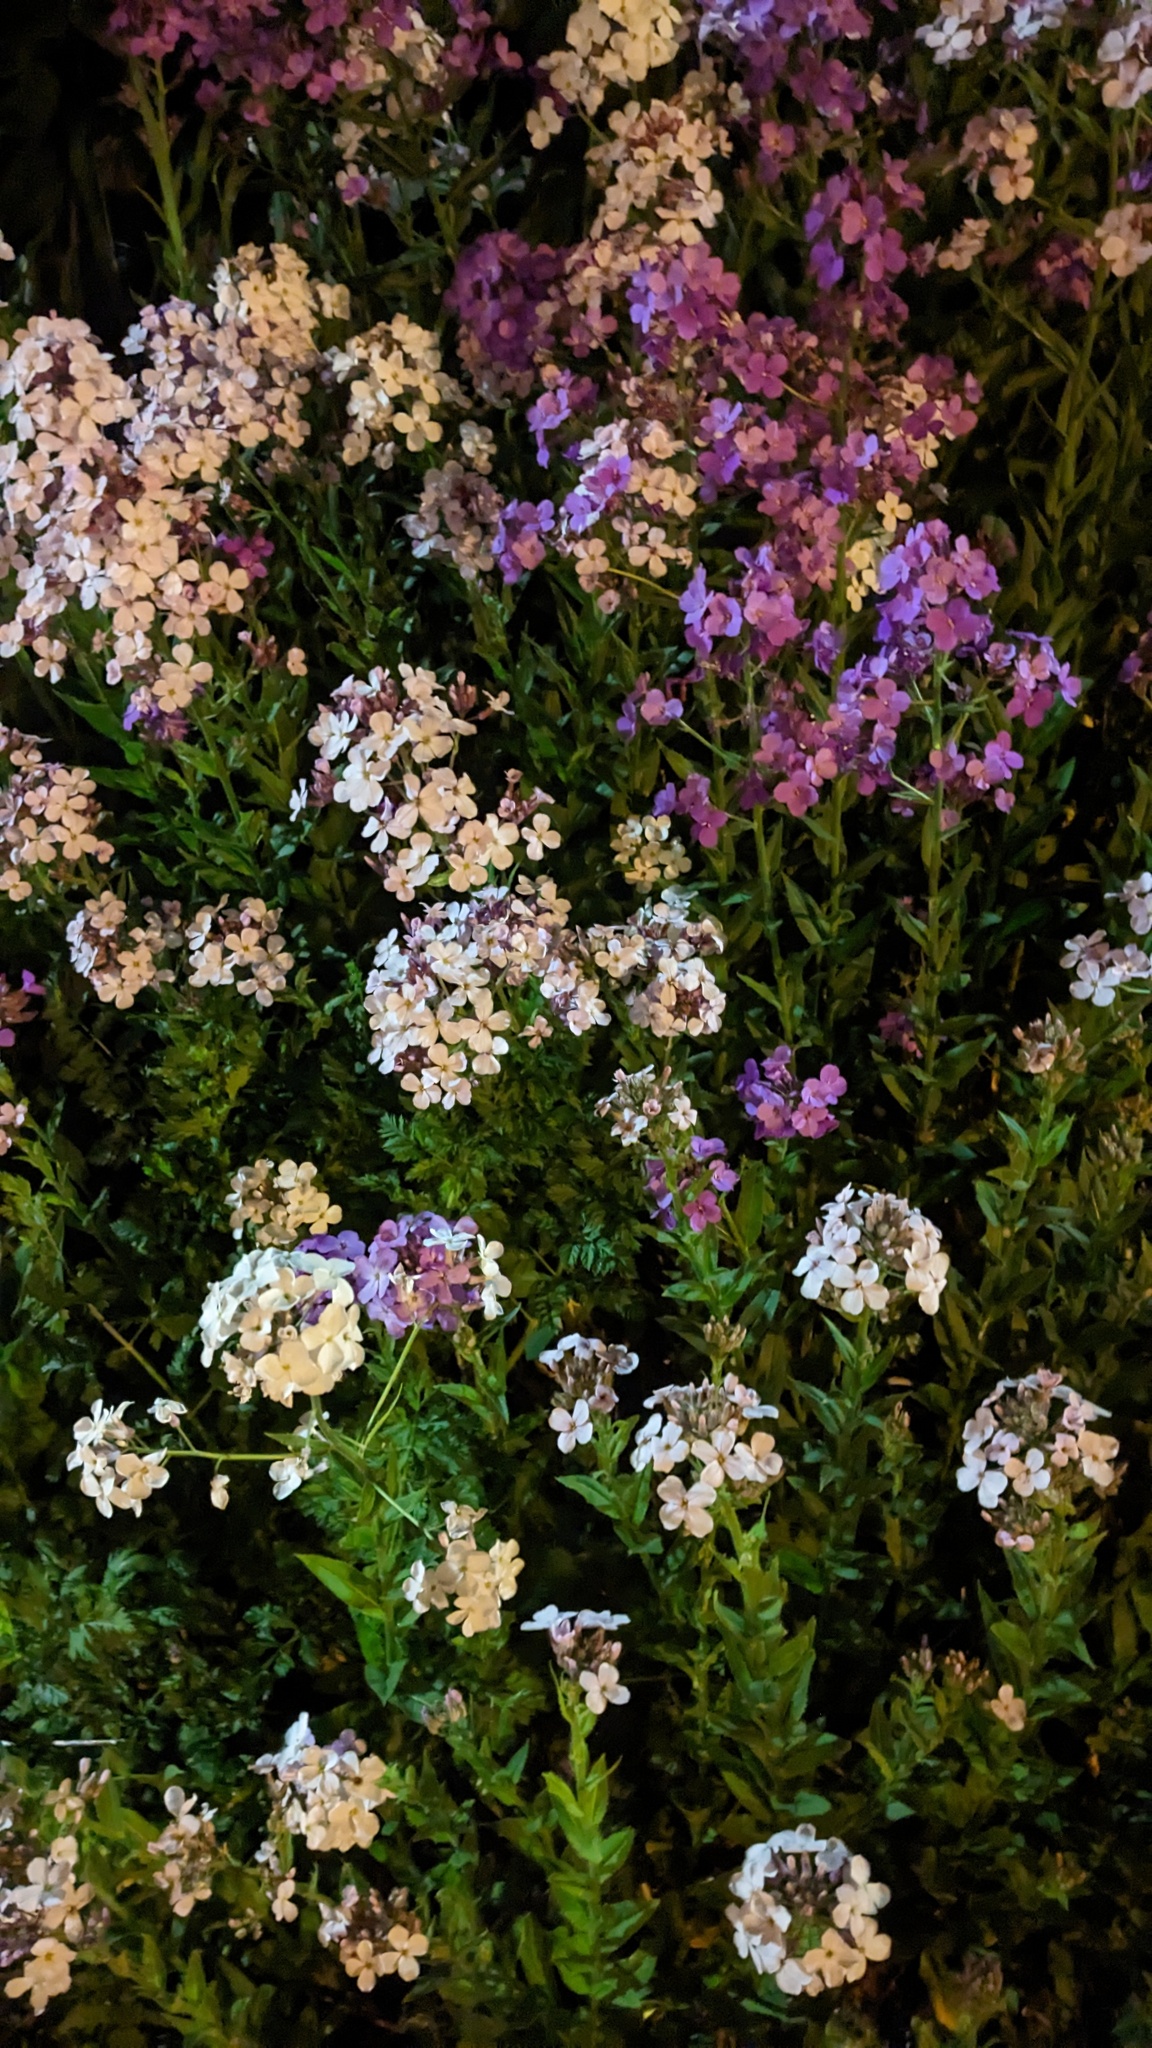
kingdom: Plantae
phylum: Tracheophyta
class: Magnoliopsida
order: Brassicales
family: Brassicaceae
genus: Hesperis
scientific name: Hesperis matronalis
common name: Dame's-violet
